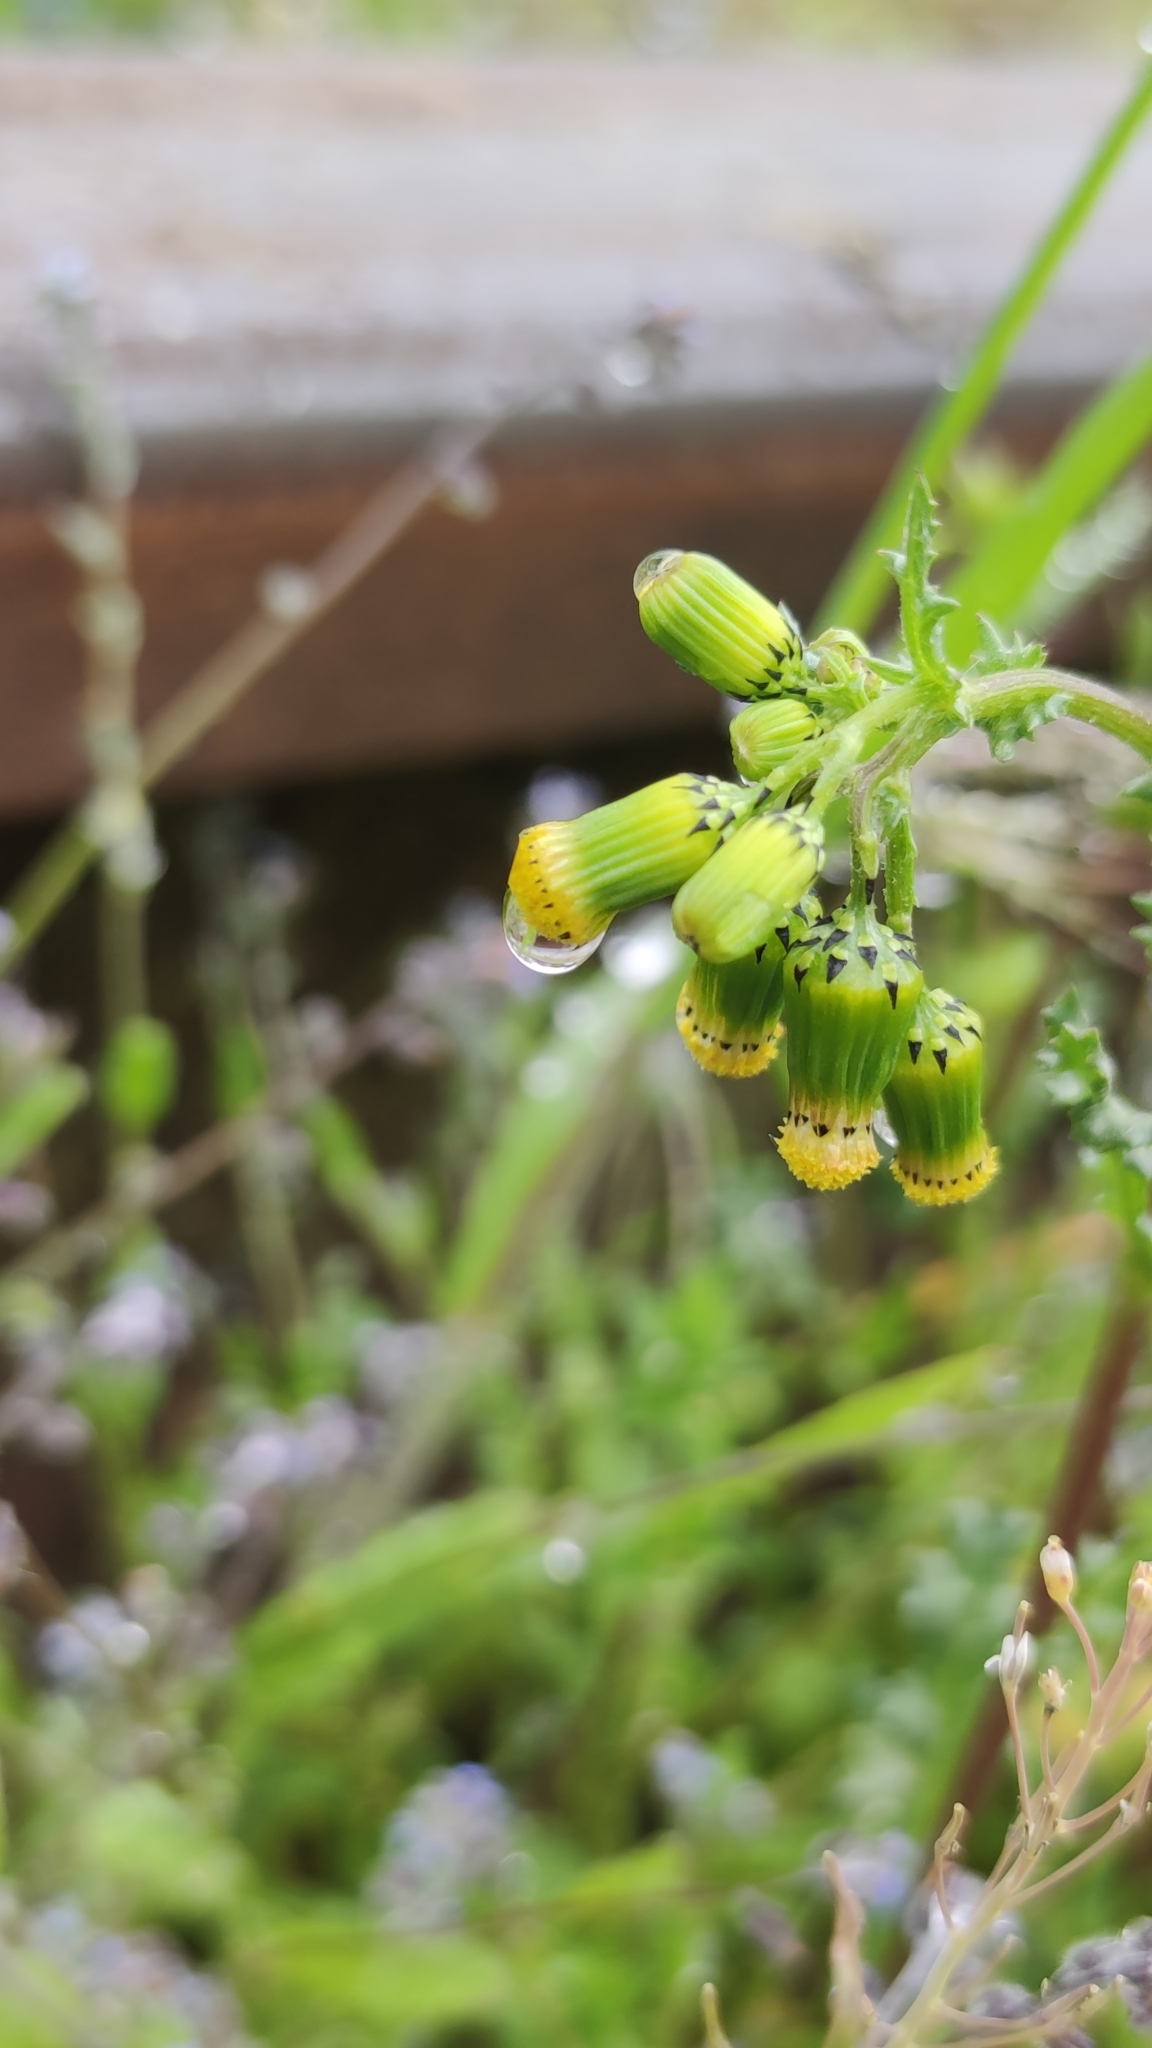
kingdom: Plantae
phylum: Tracheophyta
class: Magnoliopsida
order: Asterales
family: Asteraceae
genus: Senecio
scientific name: Senecio vulgaris
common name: Old-man-in-the-spring
